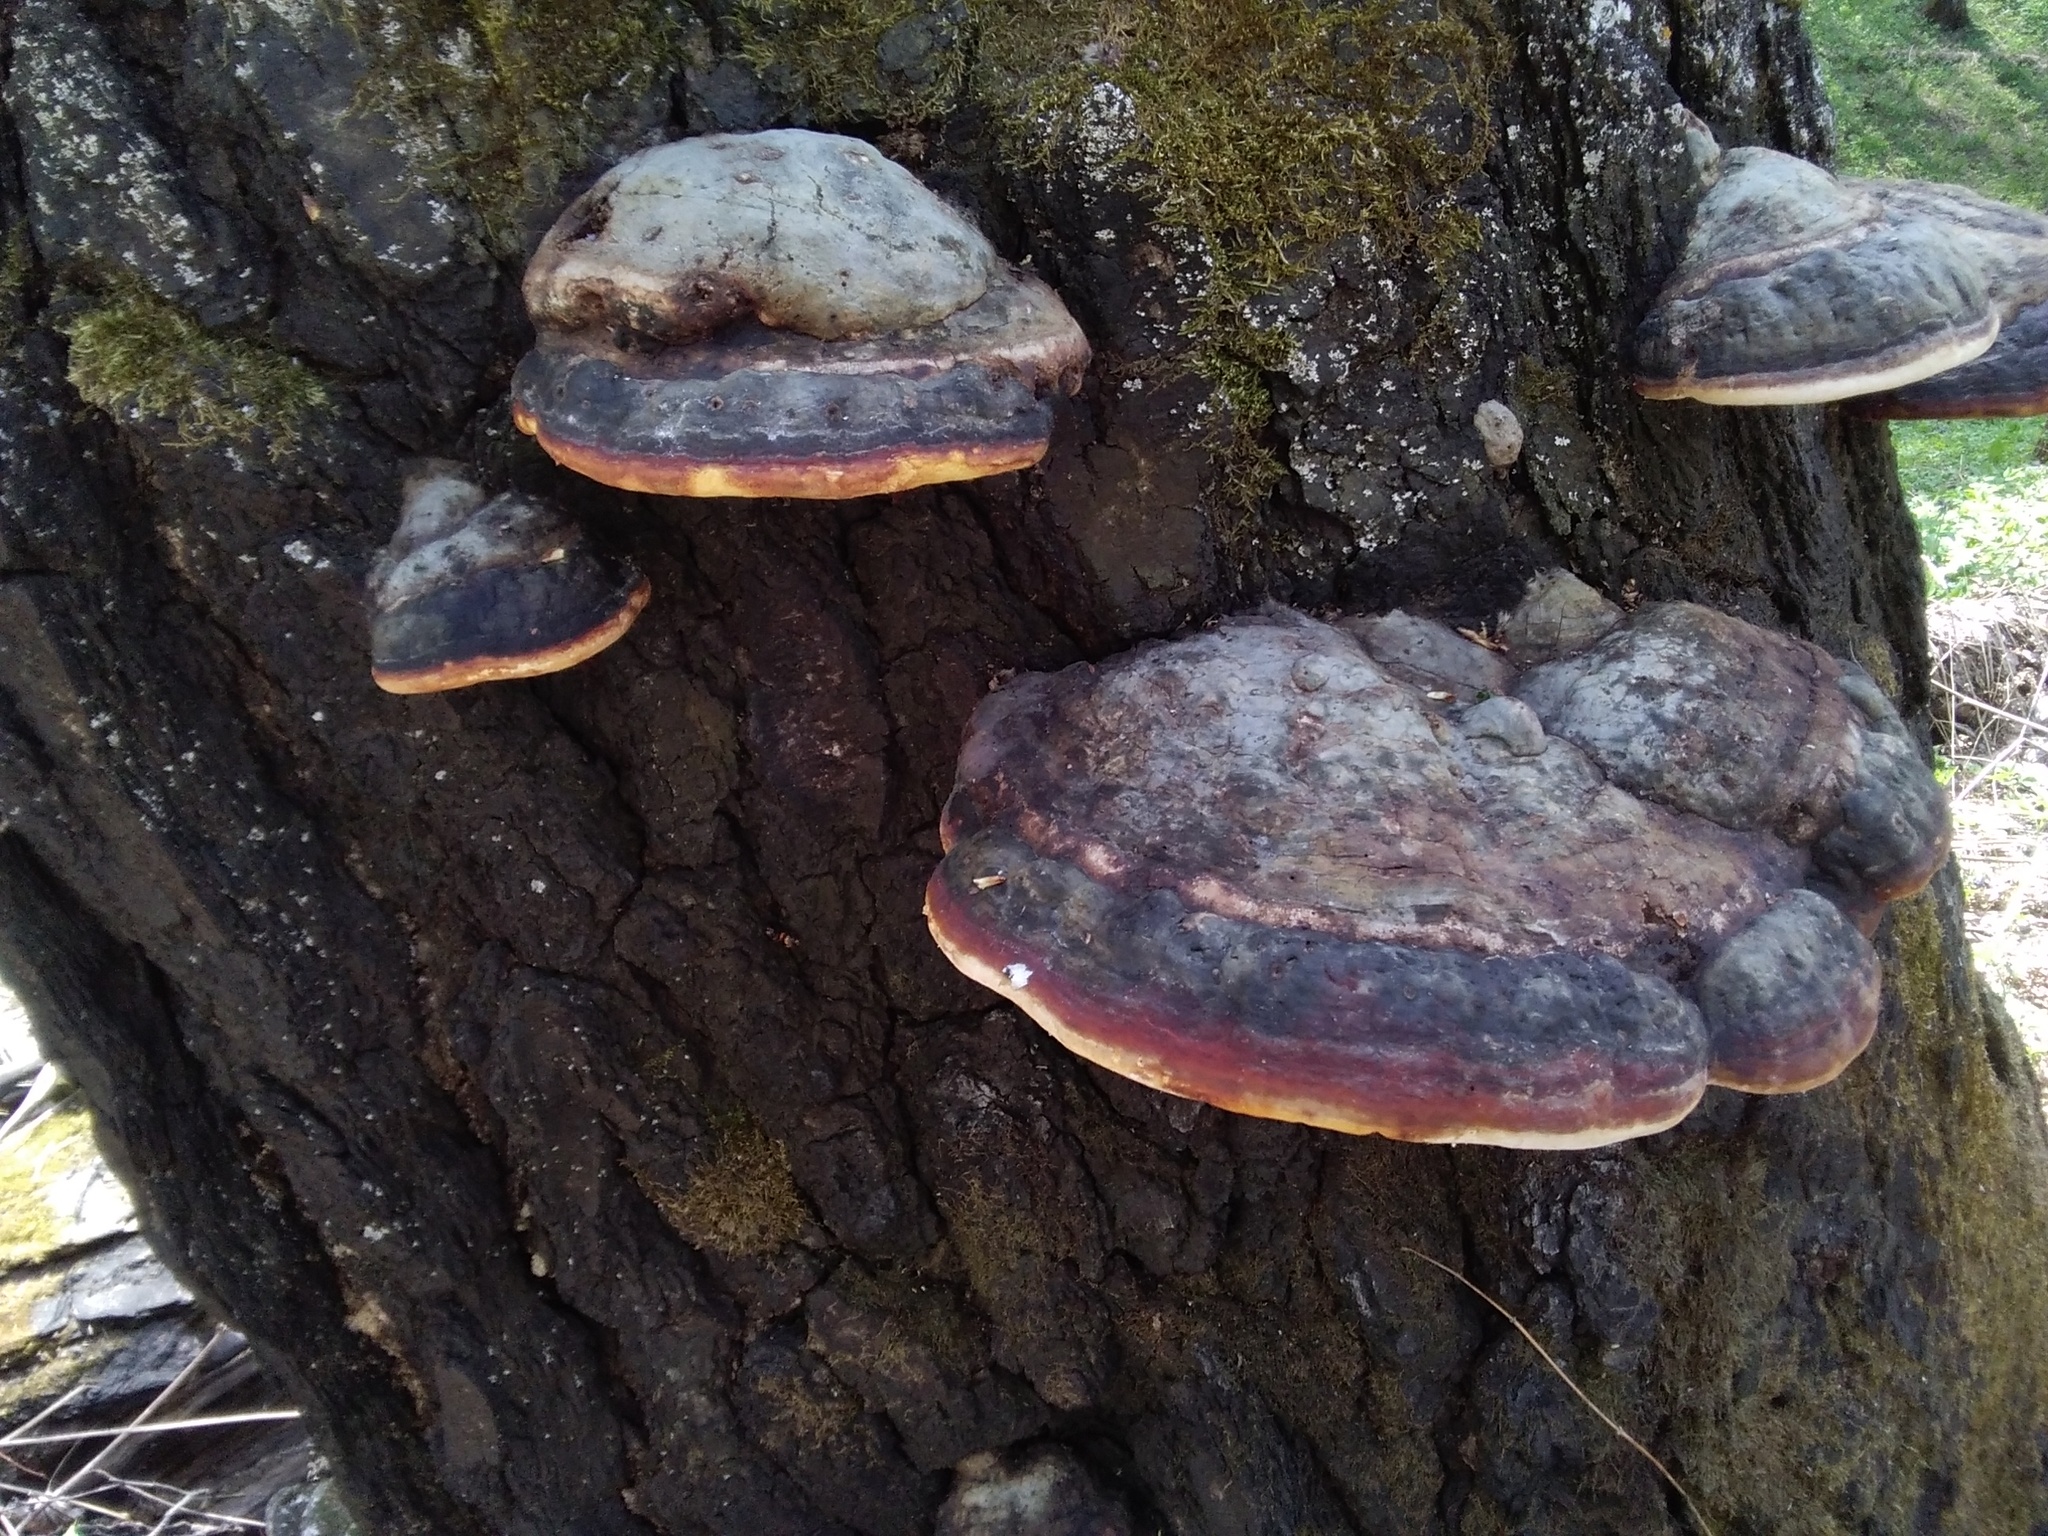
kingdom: Fungi
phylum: Basidiomycota
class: Agaricomycetes
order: Polyporales
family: Fomitopsidaceae
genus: Fomitopsis
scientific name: Fomitopsis pinicola
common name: Red-belted bracket
